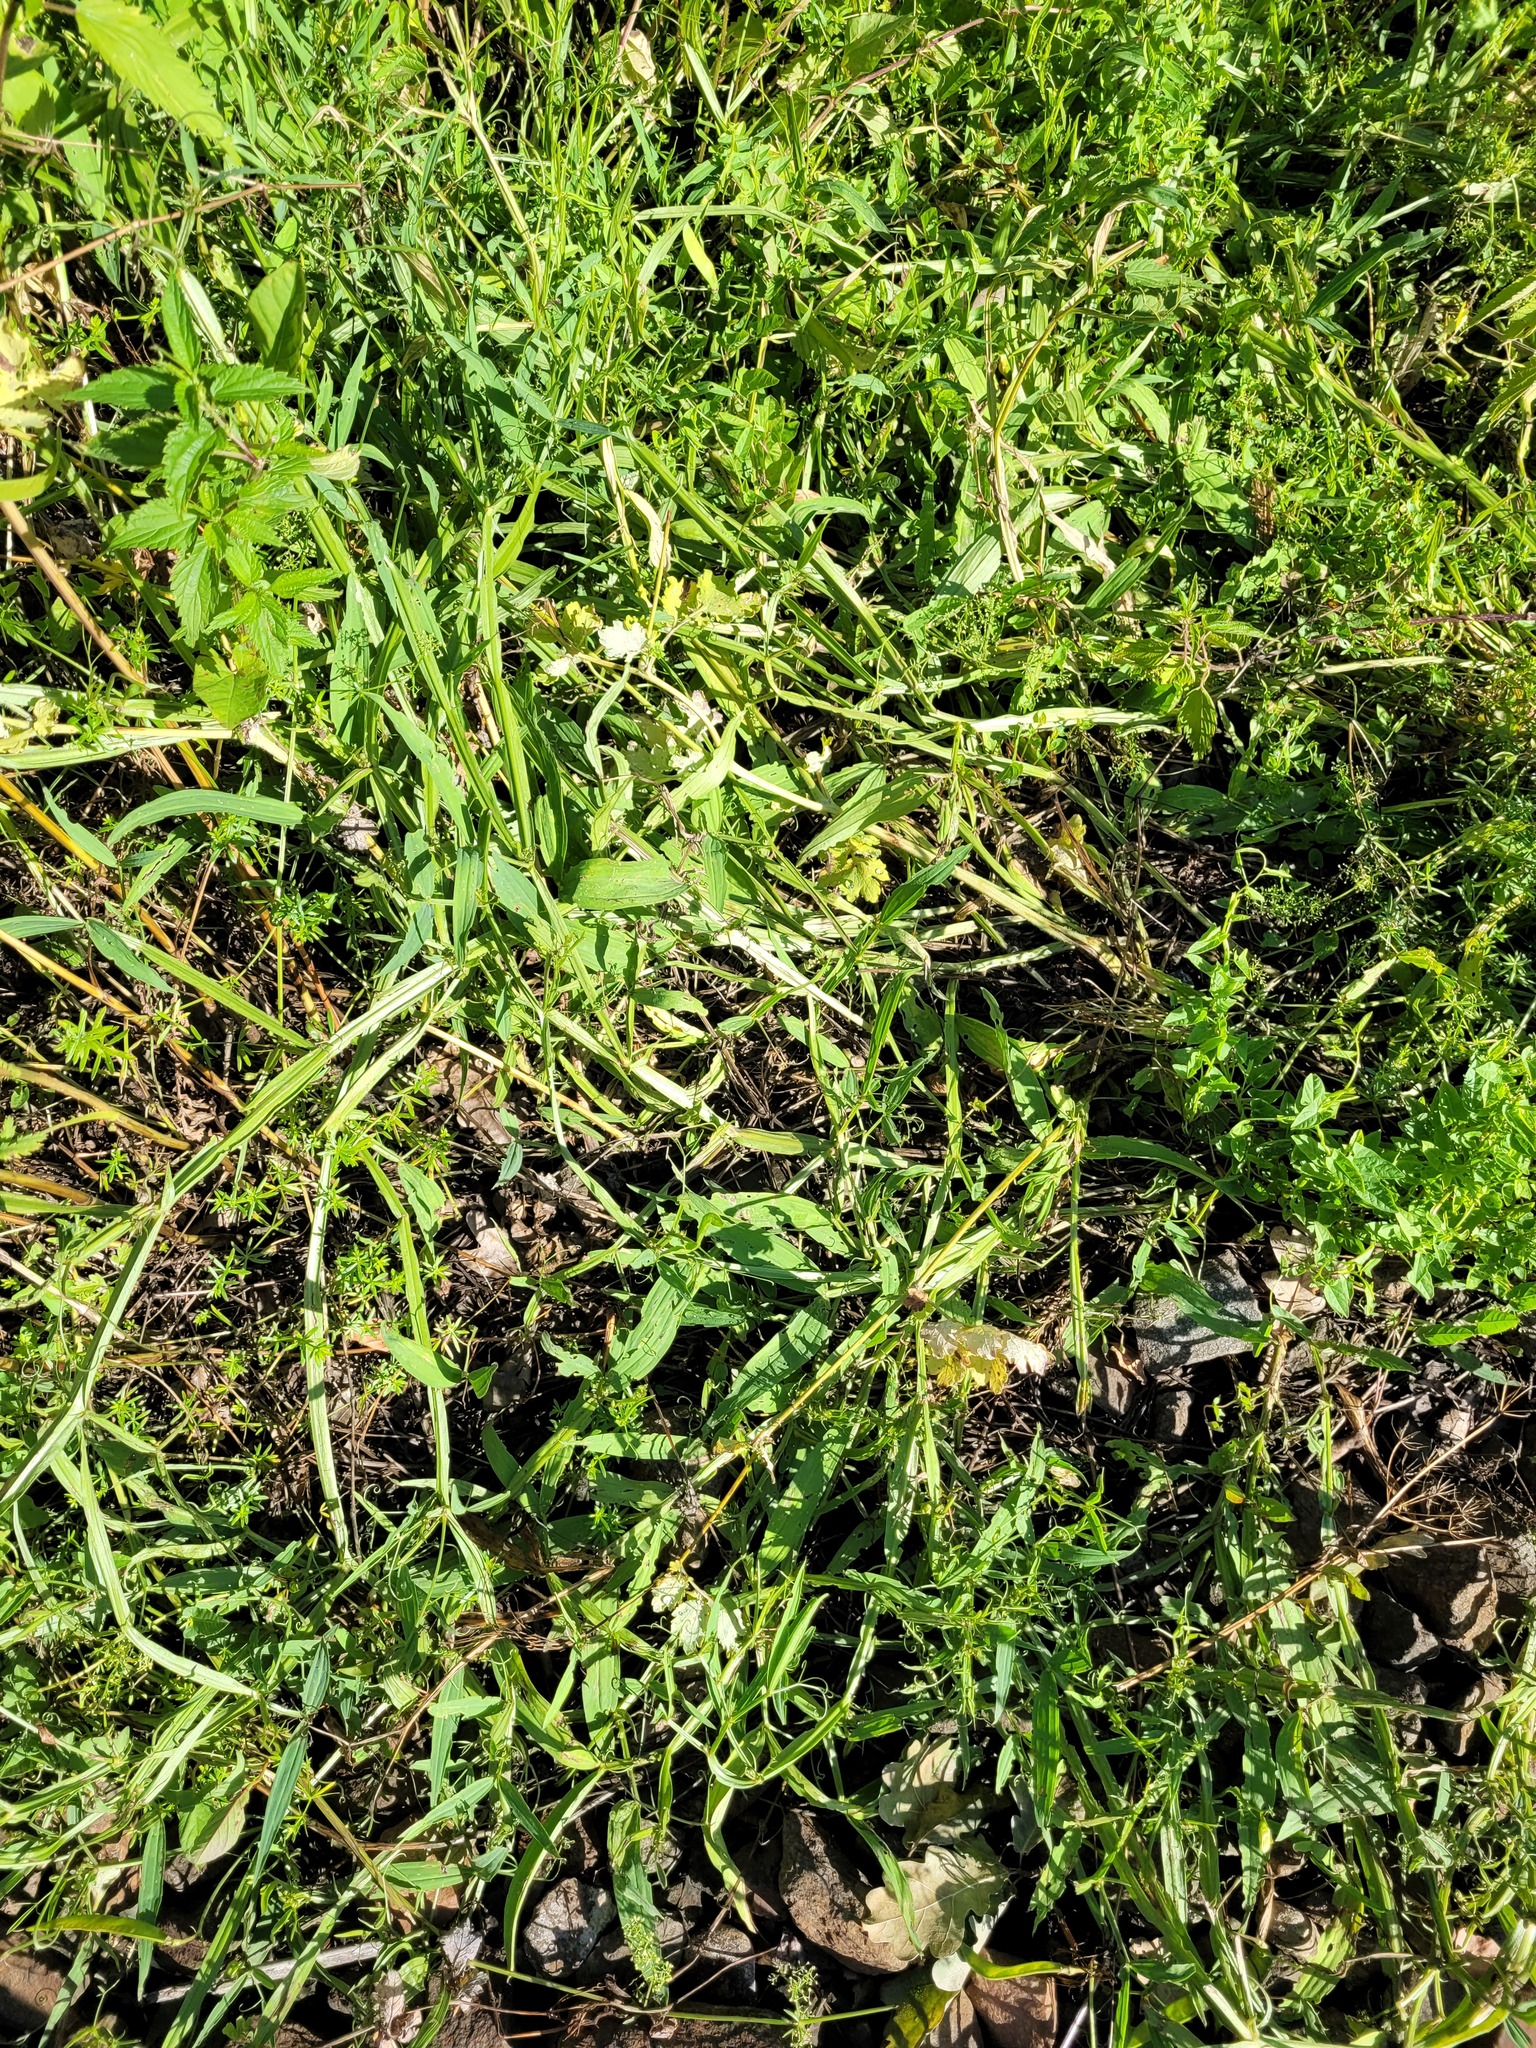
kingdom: Plantae
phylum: Tracheophyta
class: Magnoliopsida
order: Fabales
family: Fabaceae
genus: Lathyrus
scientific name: Lathyrus sylvestris
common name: Flat pea
